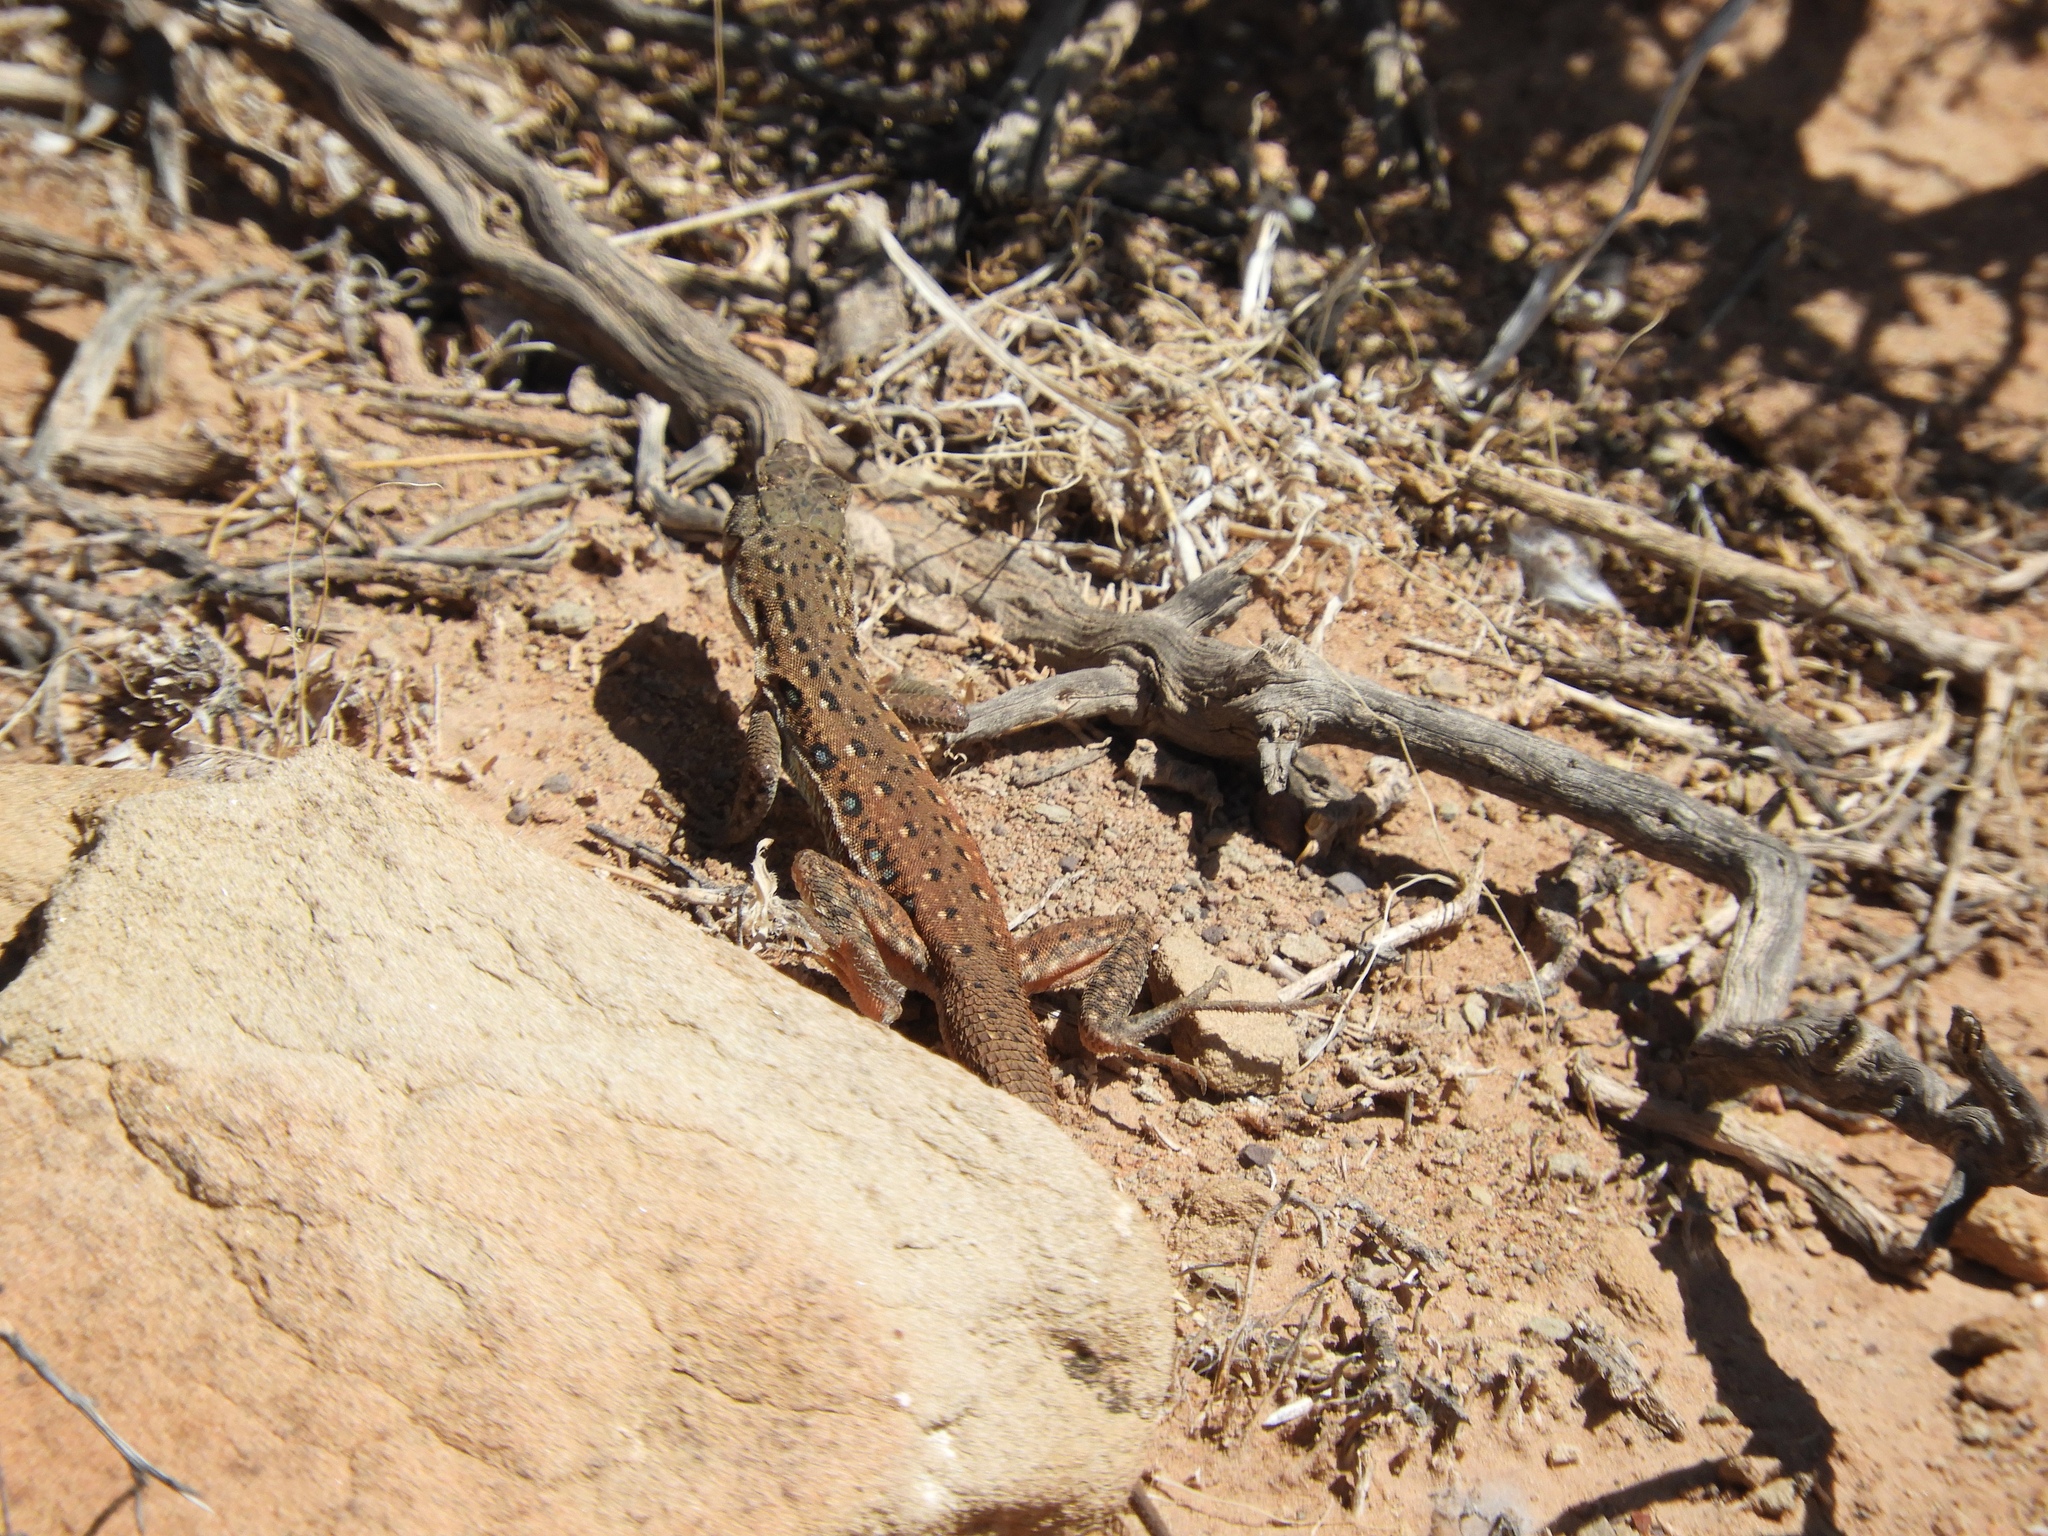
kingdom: Animalia
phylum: Chordata
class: Squamata
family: Lacertidae
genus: Pedioplanis
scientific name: Pedioplanis lineoocellata
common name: Spotted sand lizard
